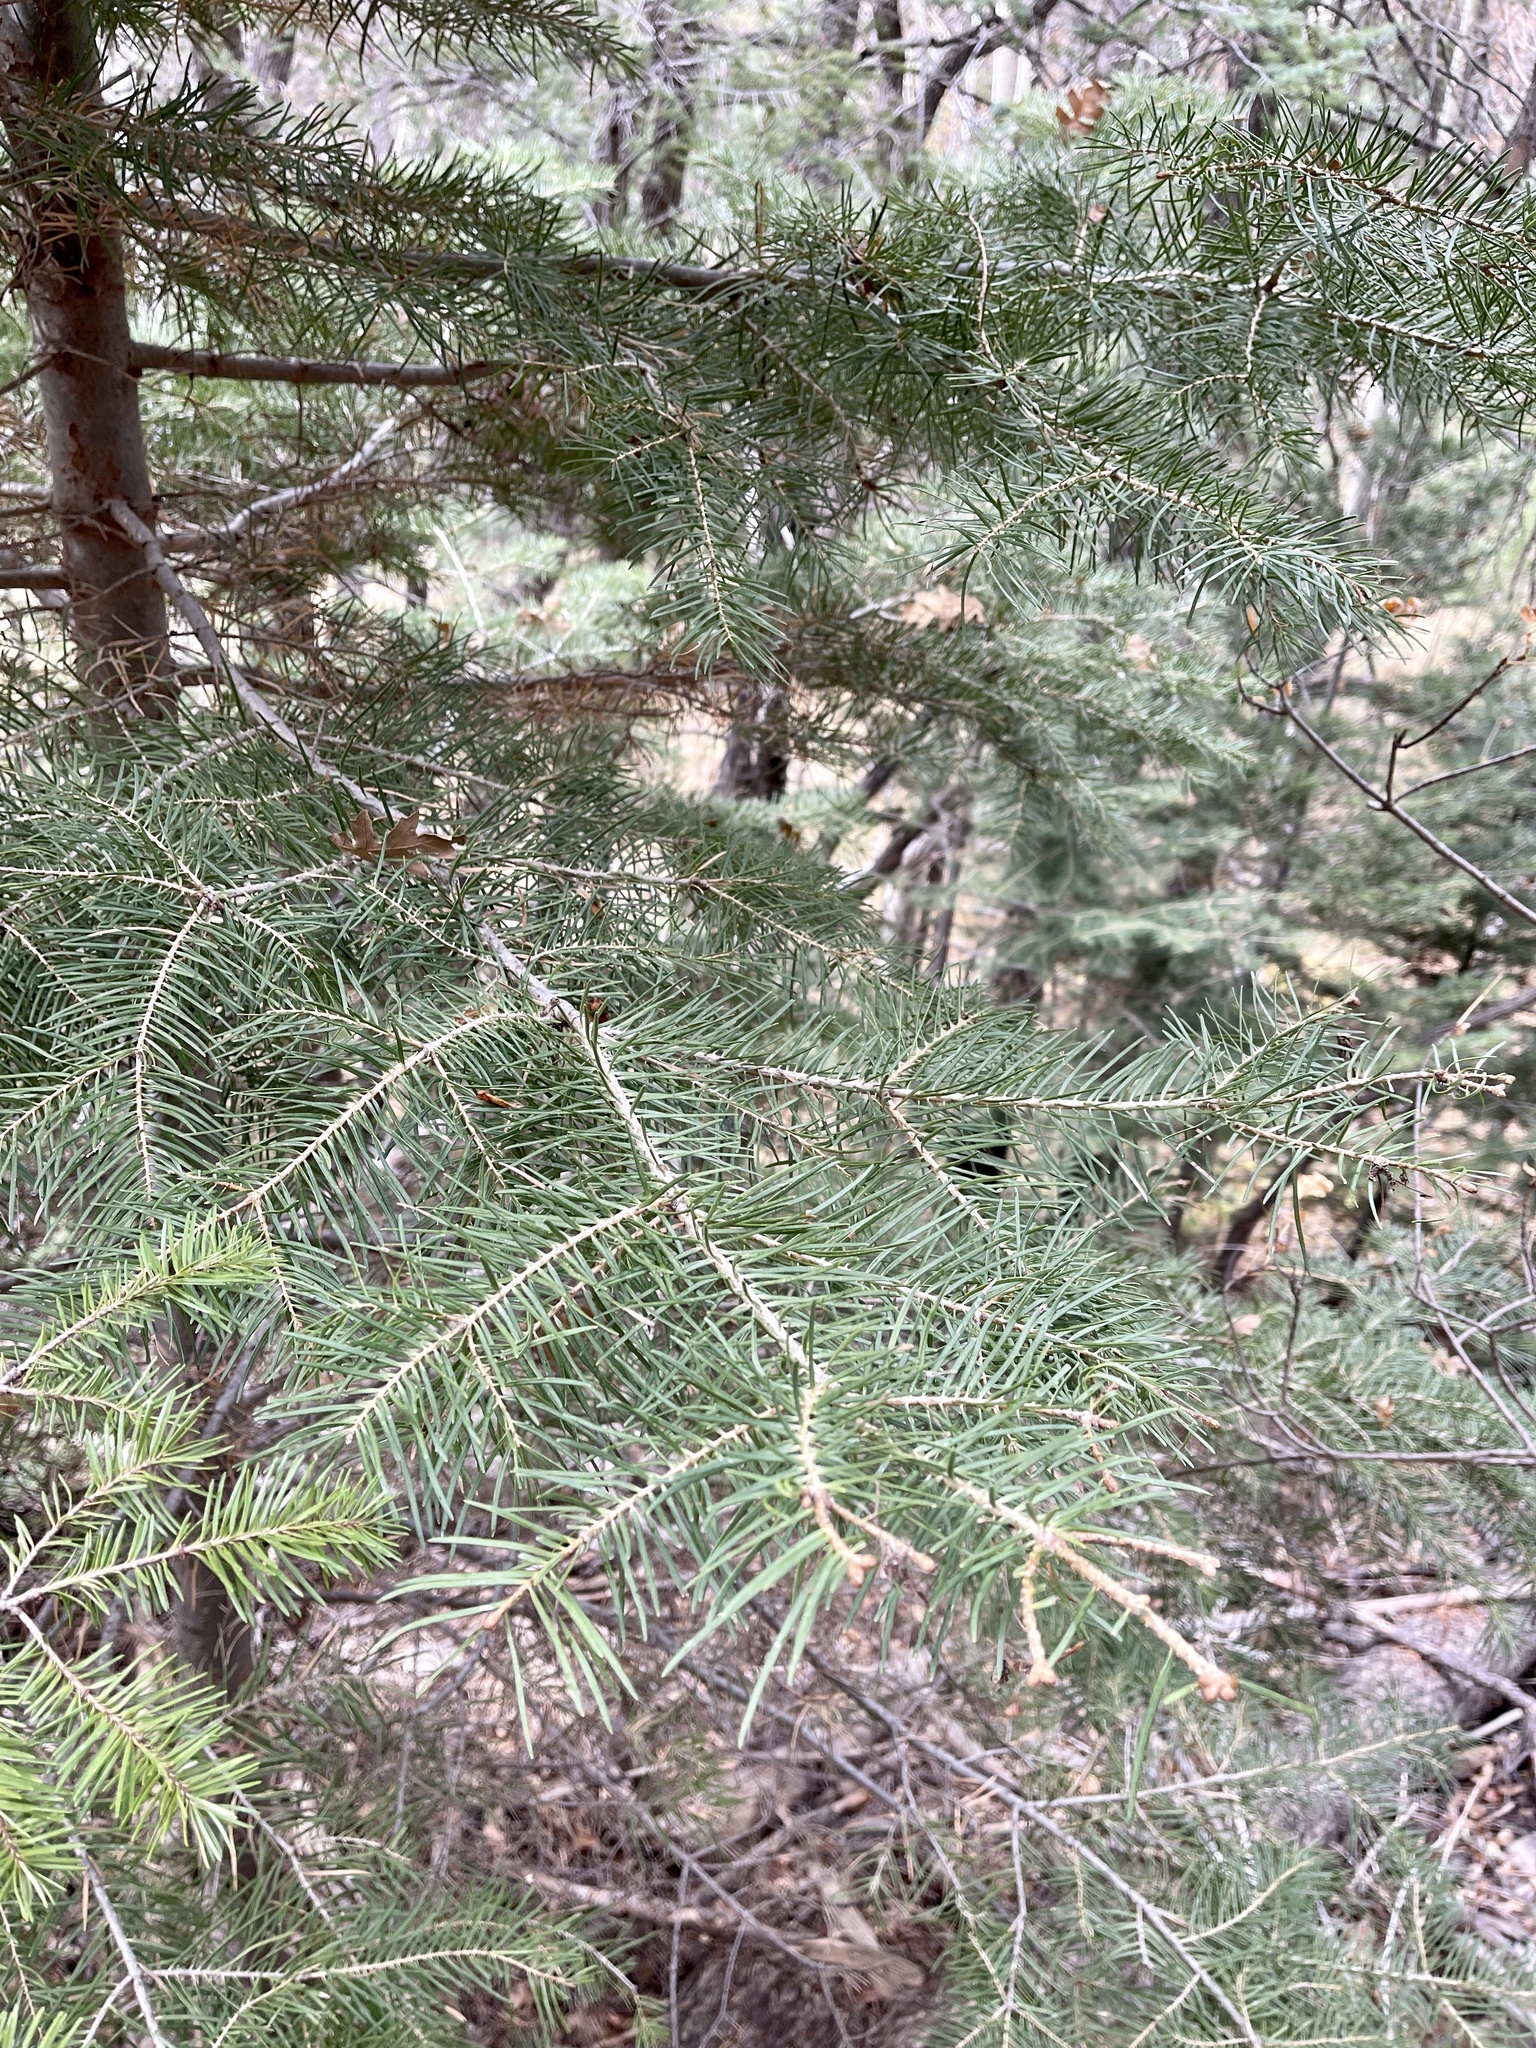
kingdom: Plantae
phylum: Tracheophyta
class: Pinopsida
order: Pinales
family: Pinaceae
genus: Abies
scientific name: Abies concolor
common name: Colorado fir
